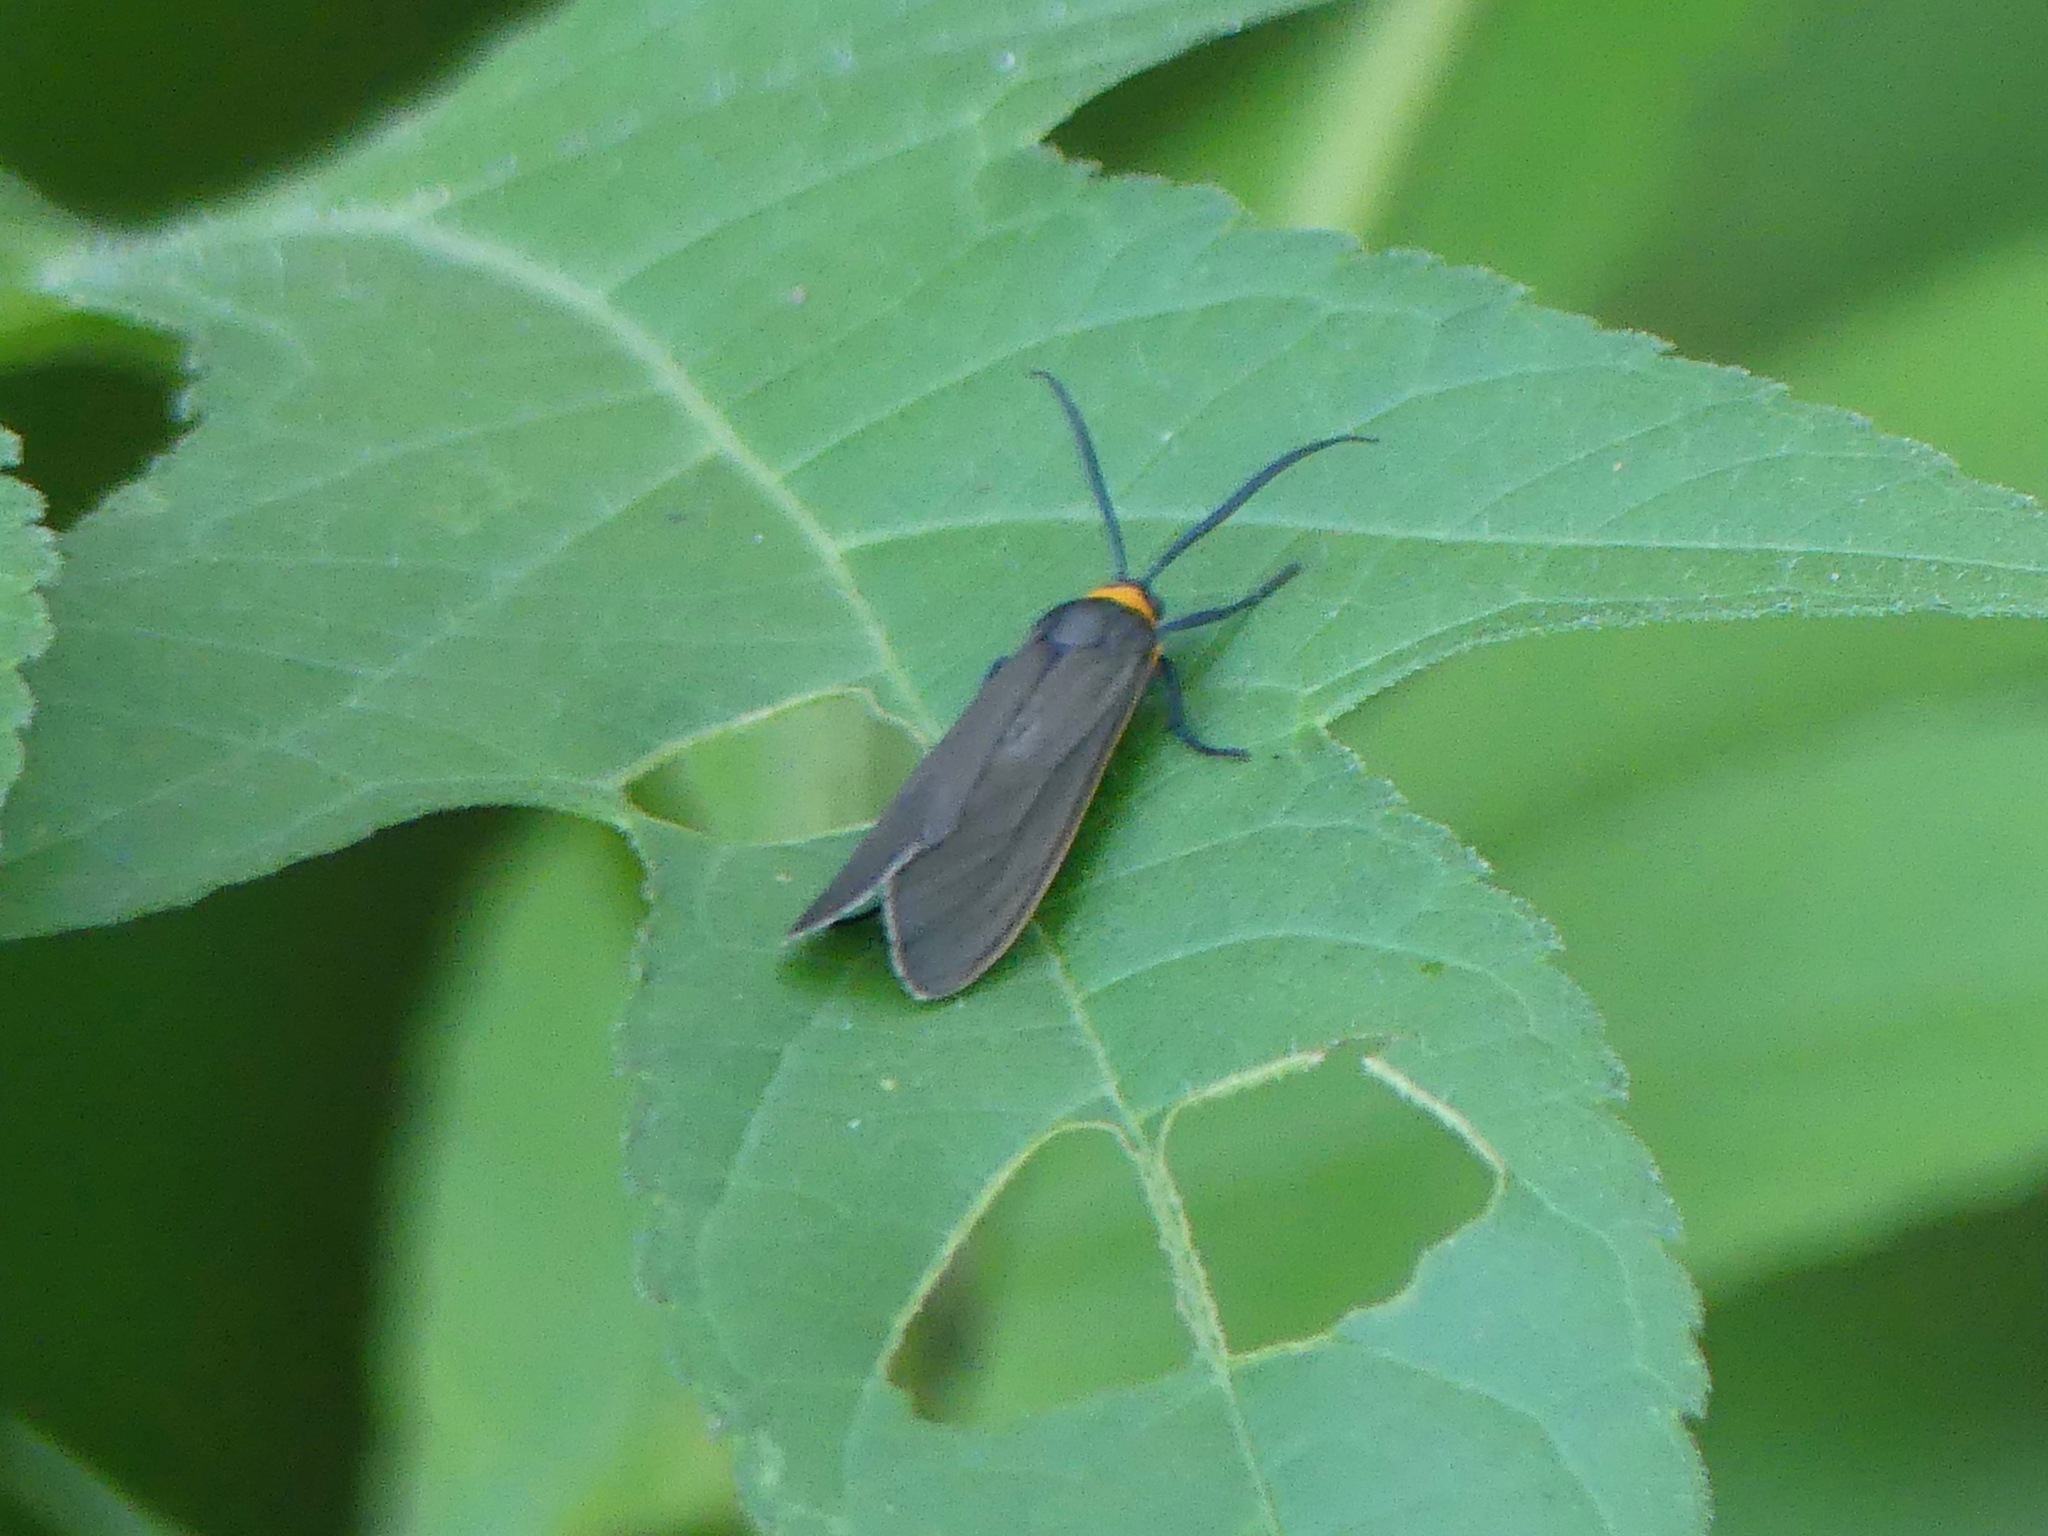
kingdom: Animalia
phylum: Arthropoda
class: Insecta
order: Lepidoptera
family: Erebidae
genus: Cisseps
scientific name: Cisseps fulvicollis
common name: Yellow-collared scape moth
